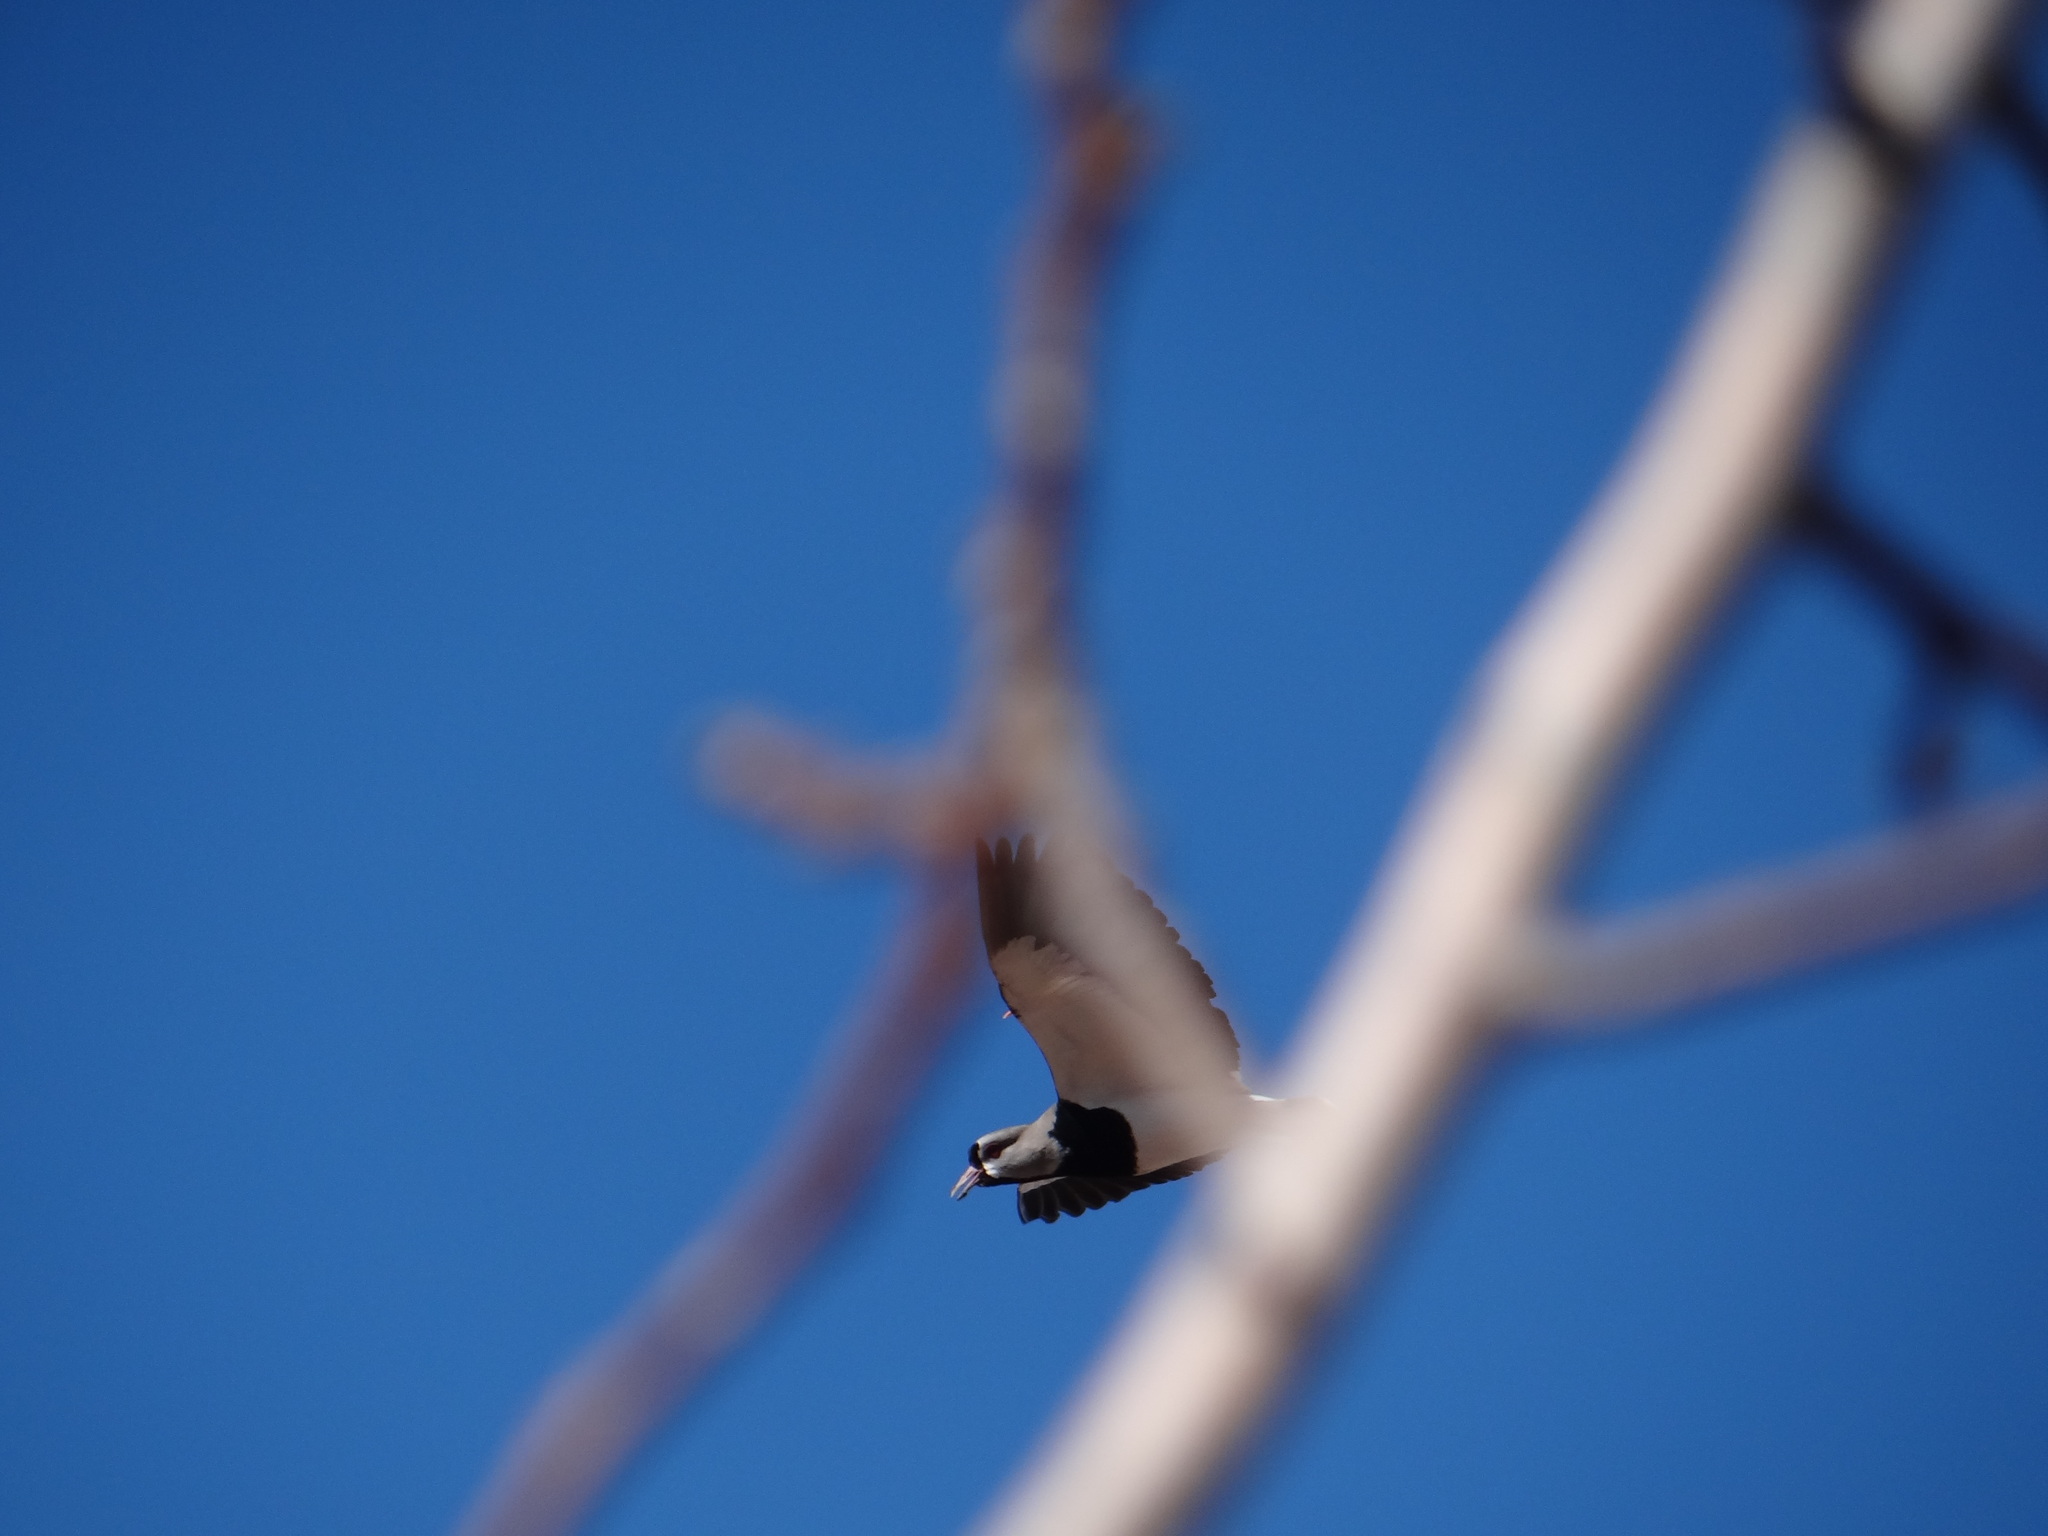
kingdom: Animalia
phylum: Chordata
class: Aves
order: Charadriiformes
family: Charadriidae
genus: Vanellus
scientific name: Vanellus chilensis
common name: Southern lapwing
